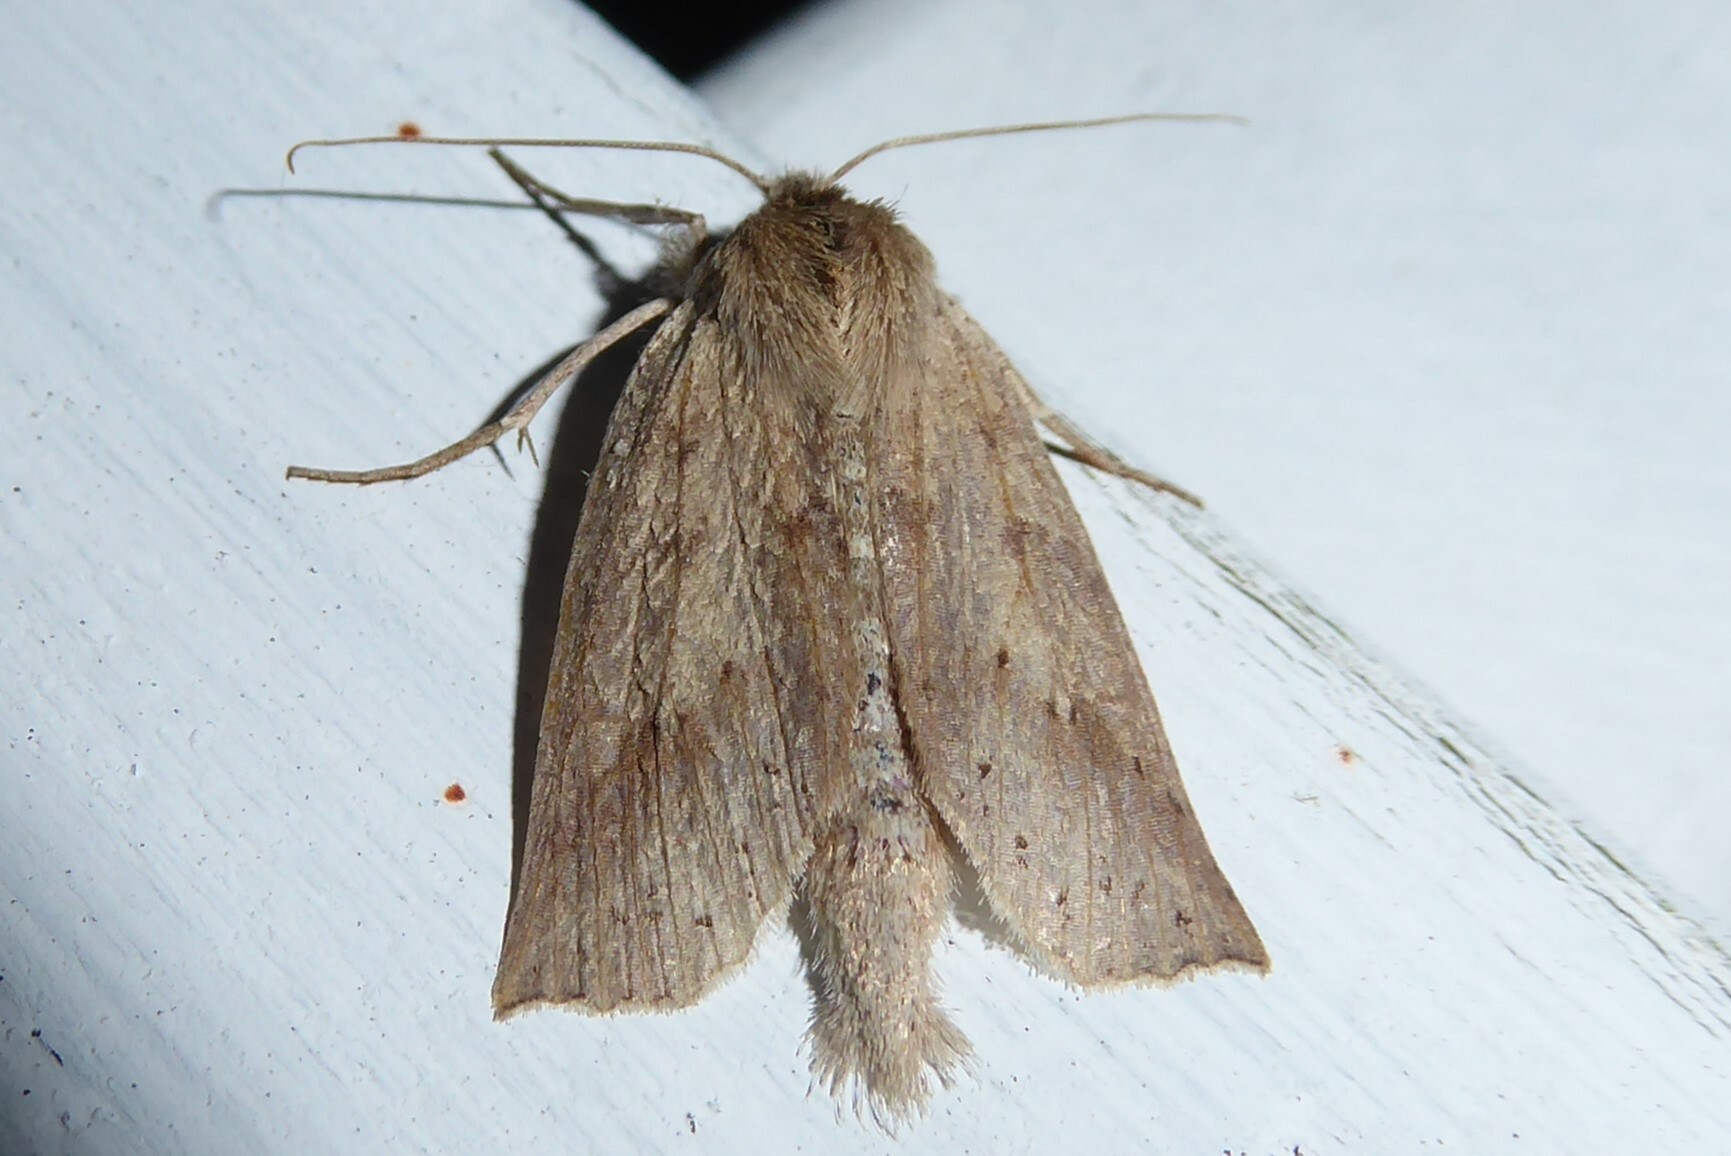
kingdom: Animalia
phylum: Arthropoda
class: Insecta
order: Lepidoptera
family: Geometridae
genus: Declana
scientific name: Declana leptomera
